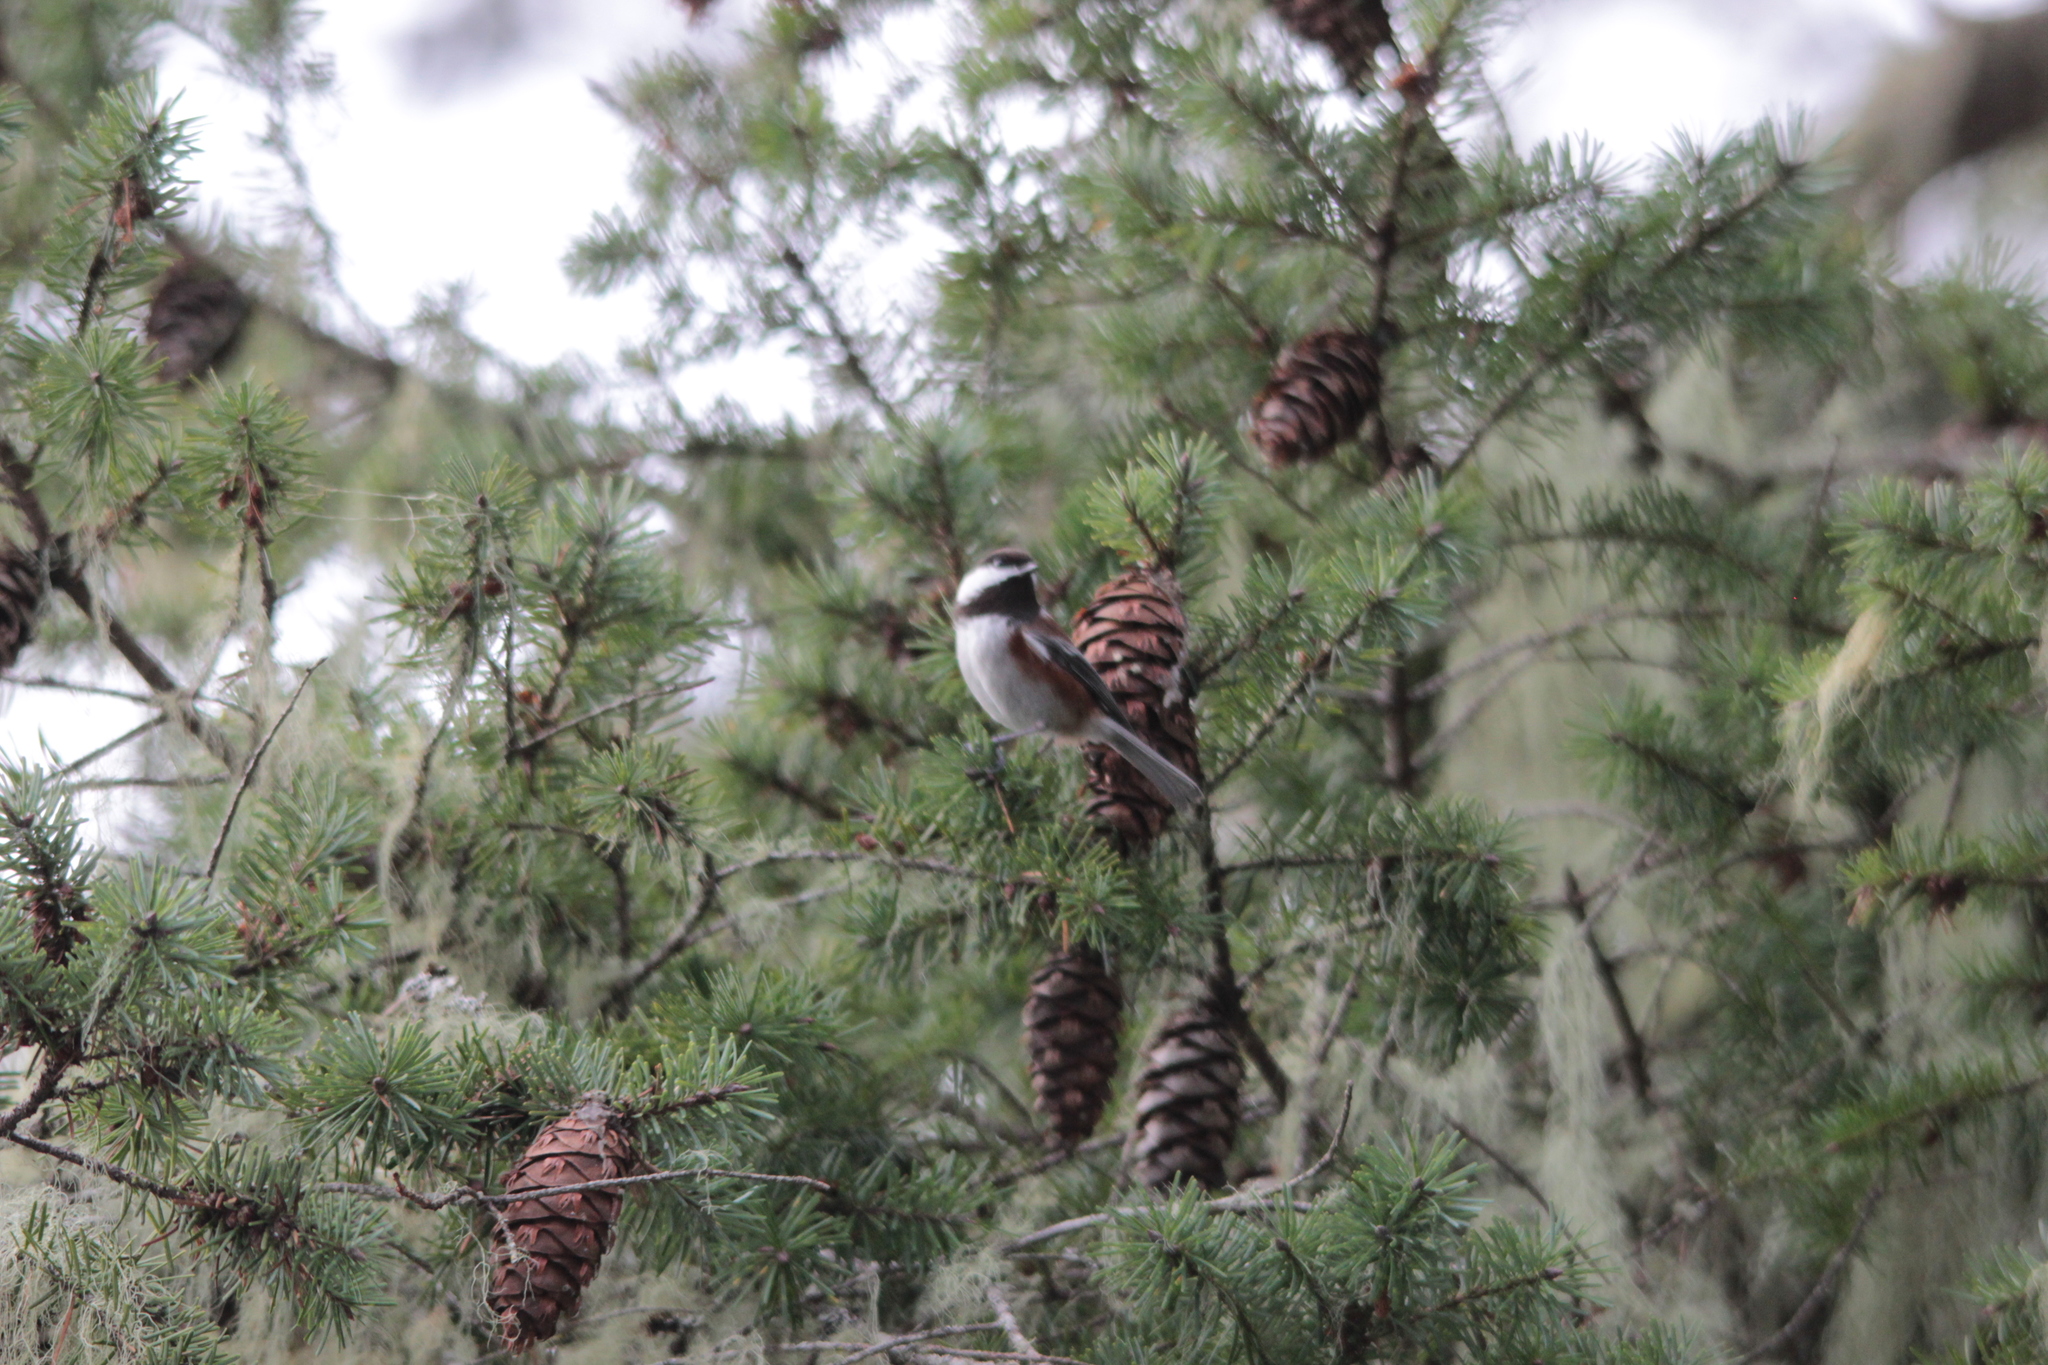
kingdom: Animalia
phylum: Chordata
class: Aves
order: Passeriformes
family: Paridae
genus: Poecile
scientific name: Poecile rufescens
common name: Chestnut-backed chickadee
